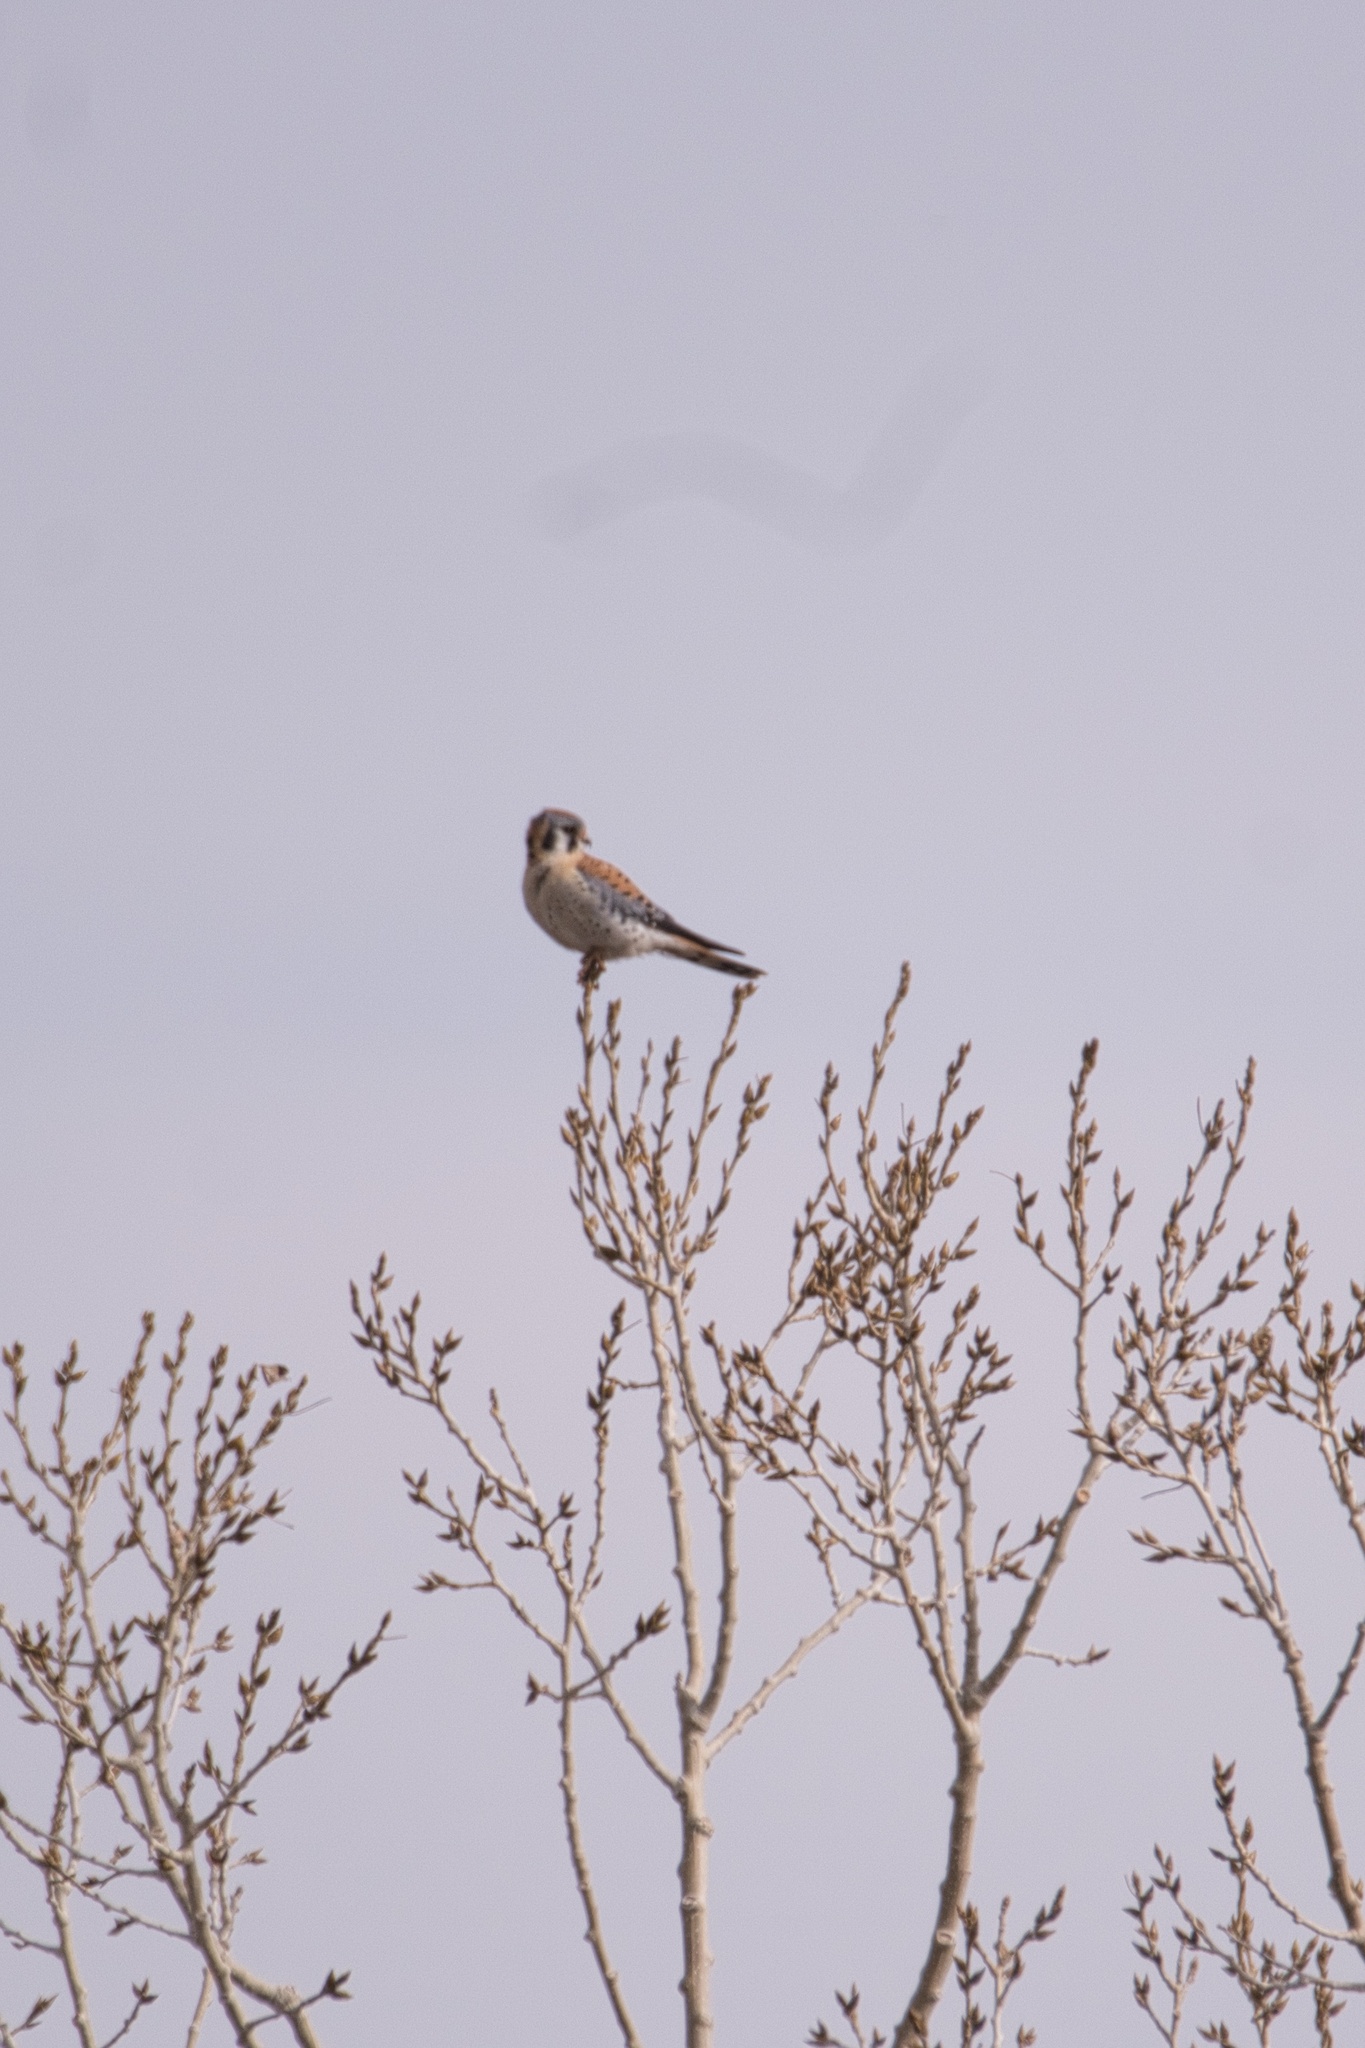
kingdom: Animalia
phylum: Chordata
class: Aves
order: Falconiformes
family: Falconidae
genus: Falco
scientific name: Falco sparverius
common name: American kestrel
